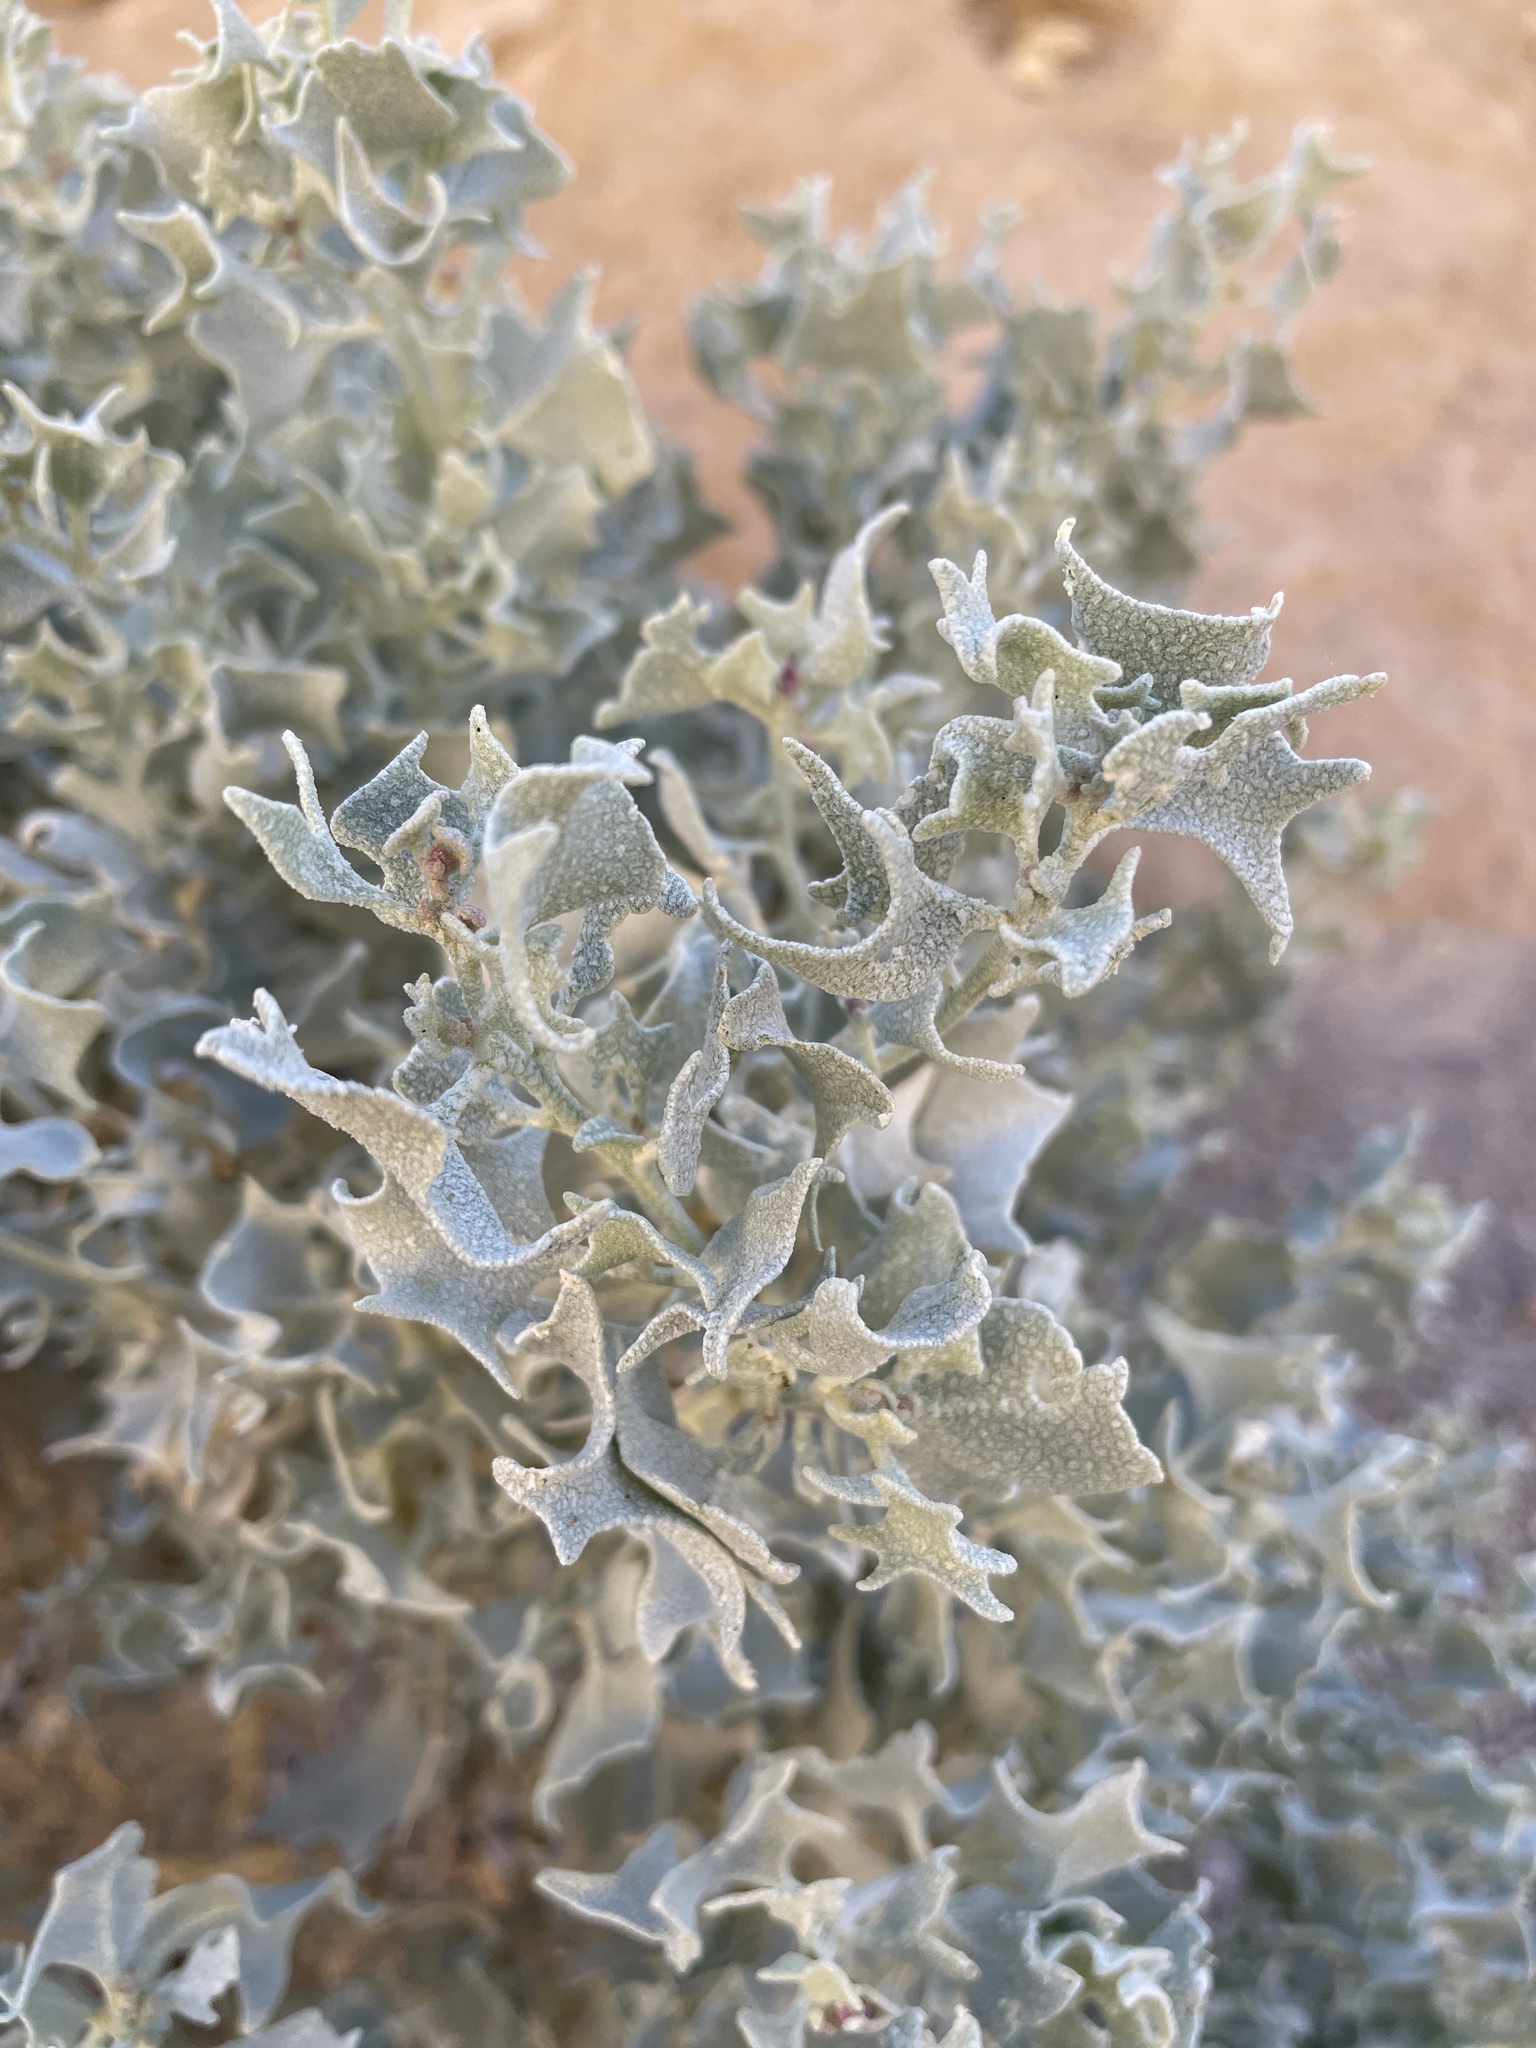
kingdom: Plantae
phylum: Tracheophyta
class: Magnoliopsida
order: Caryophyllales
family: Amaranthaceae
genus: Atriplex
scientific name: Atriplex hymenelytra
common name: Desert-holly
